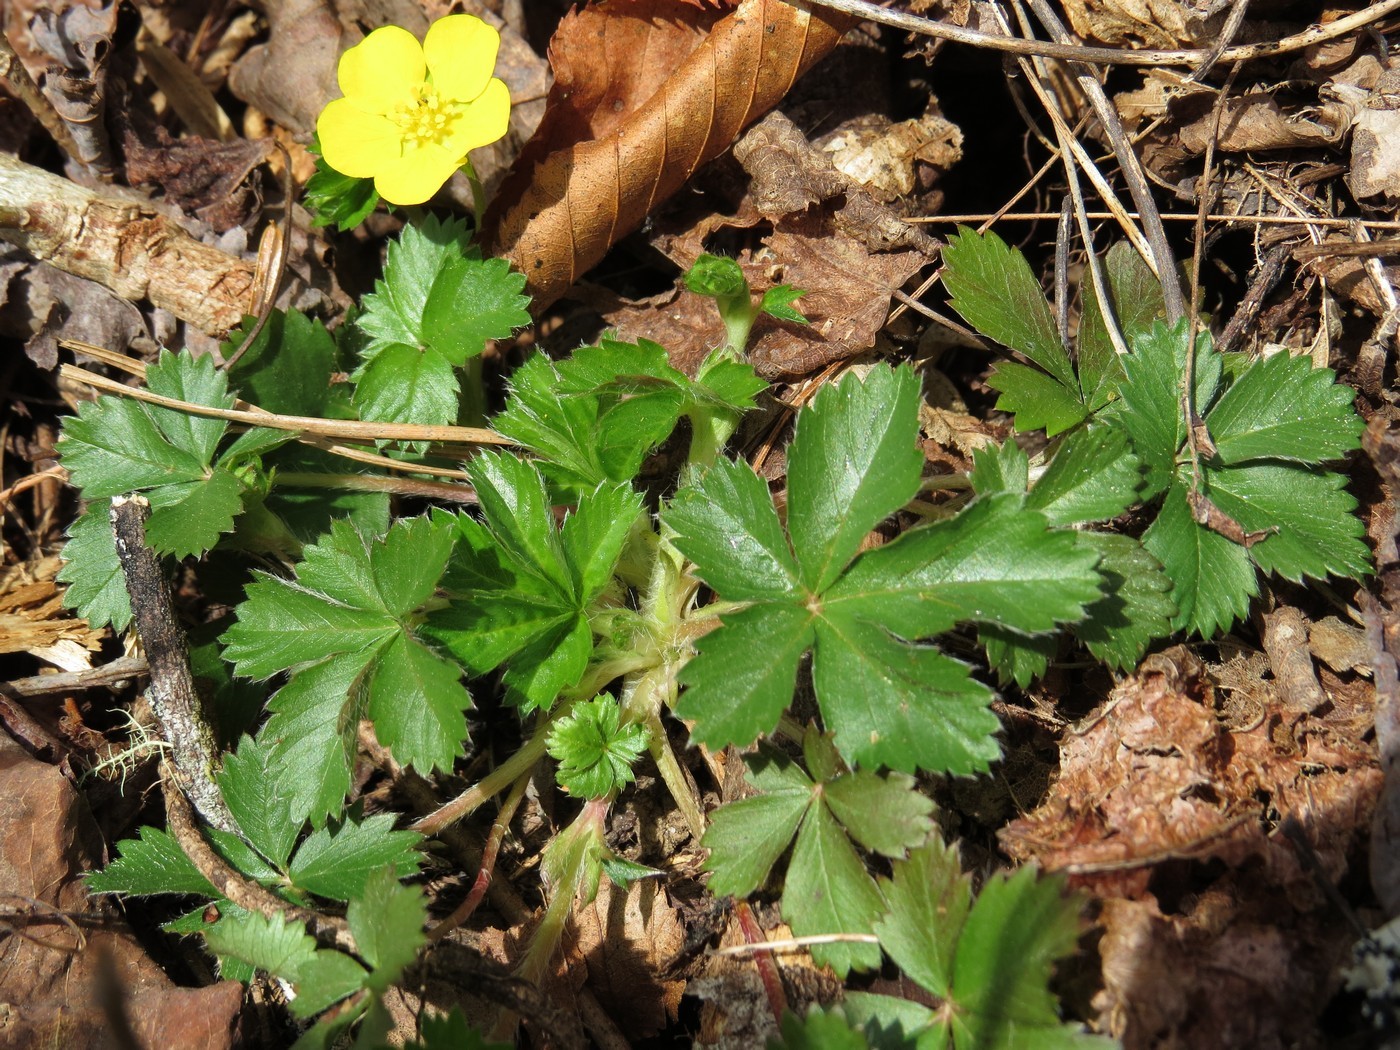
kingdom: Plantae
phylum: Tracheophyta
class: Magnoliopsida
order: Rosales
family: Rosaceae
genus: Potentilla
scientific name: Potentilla canadensis
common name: Canada cinquefoil
